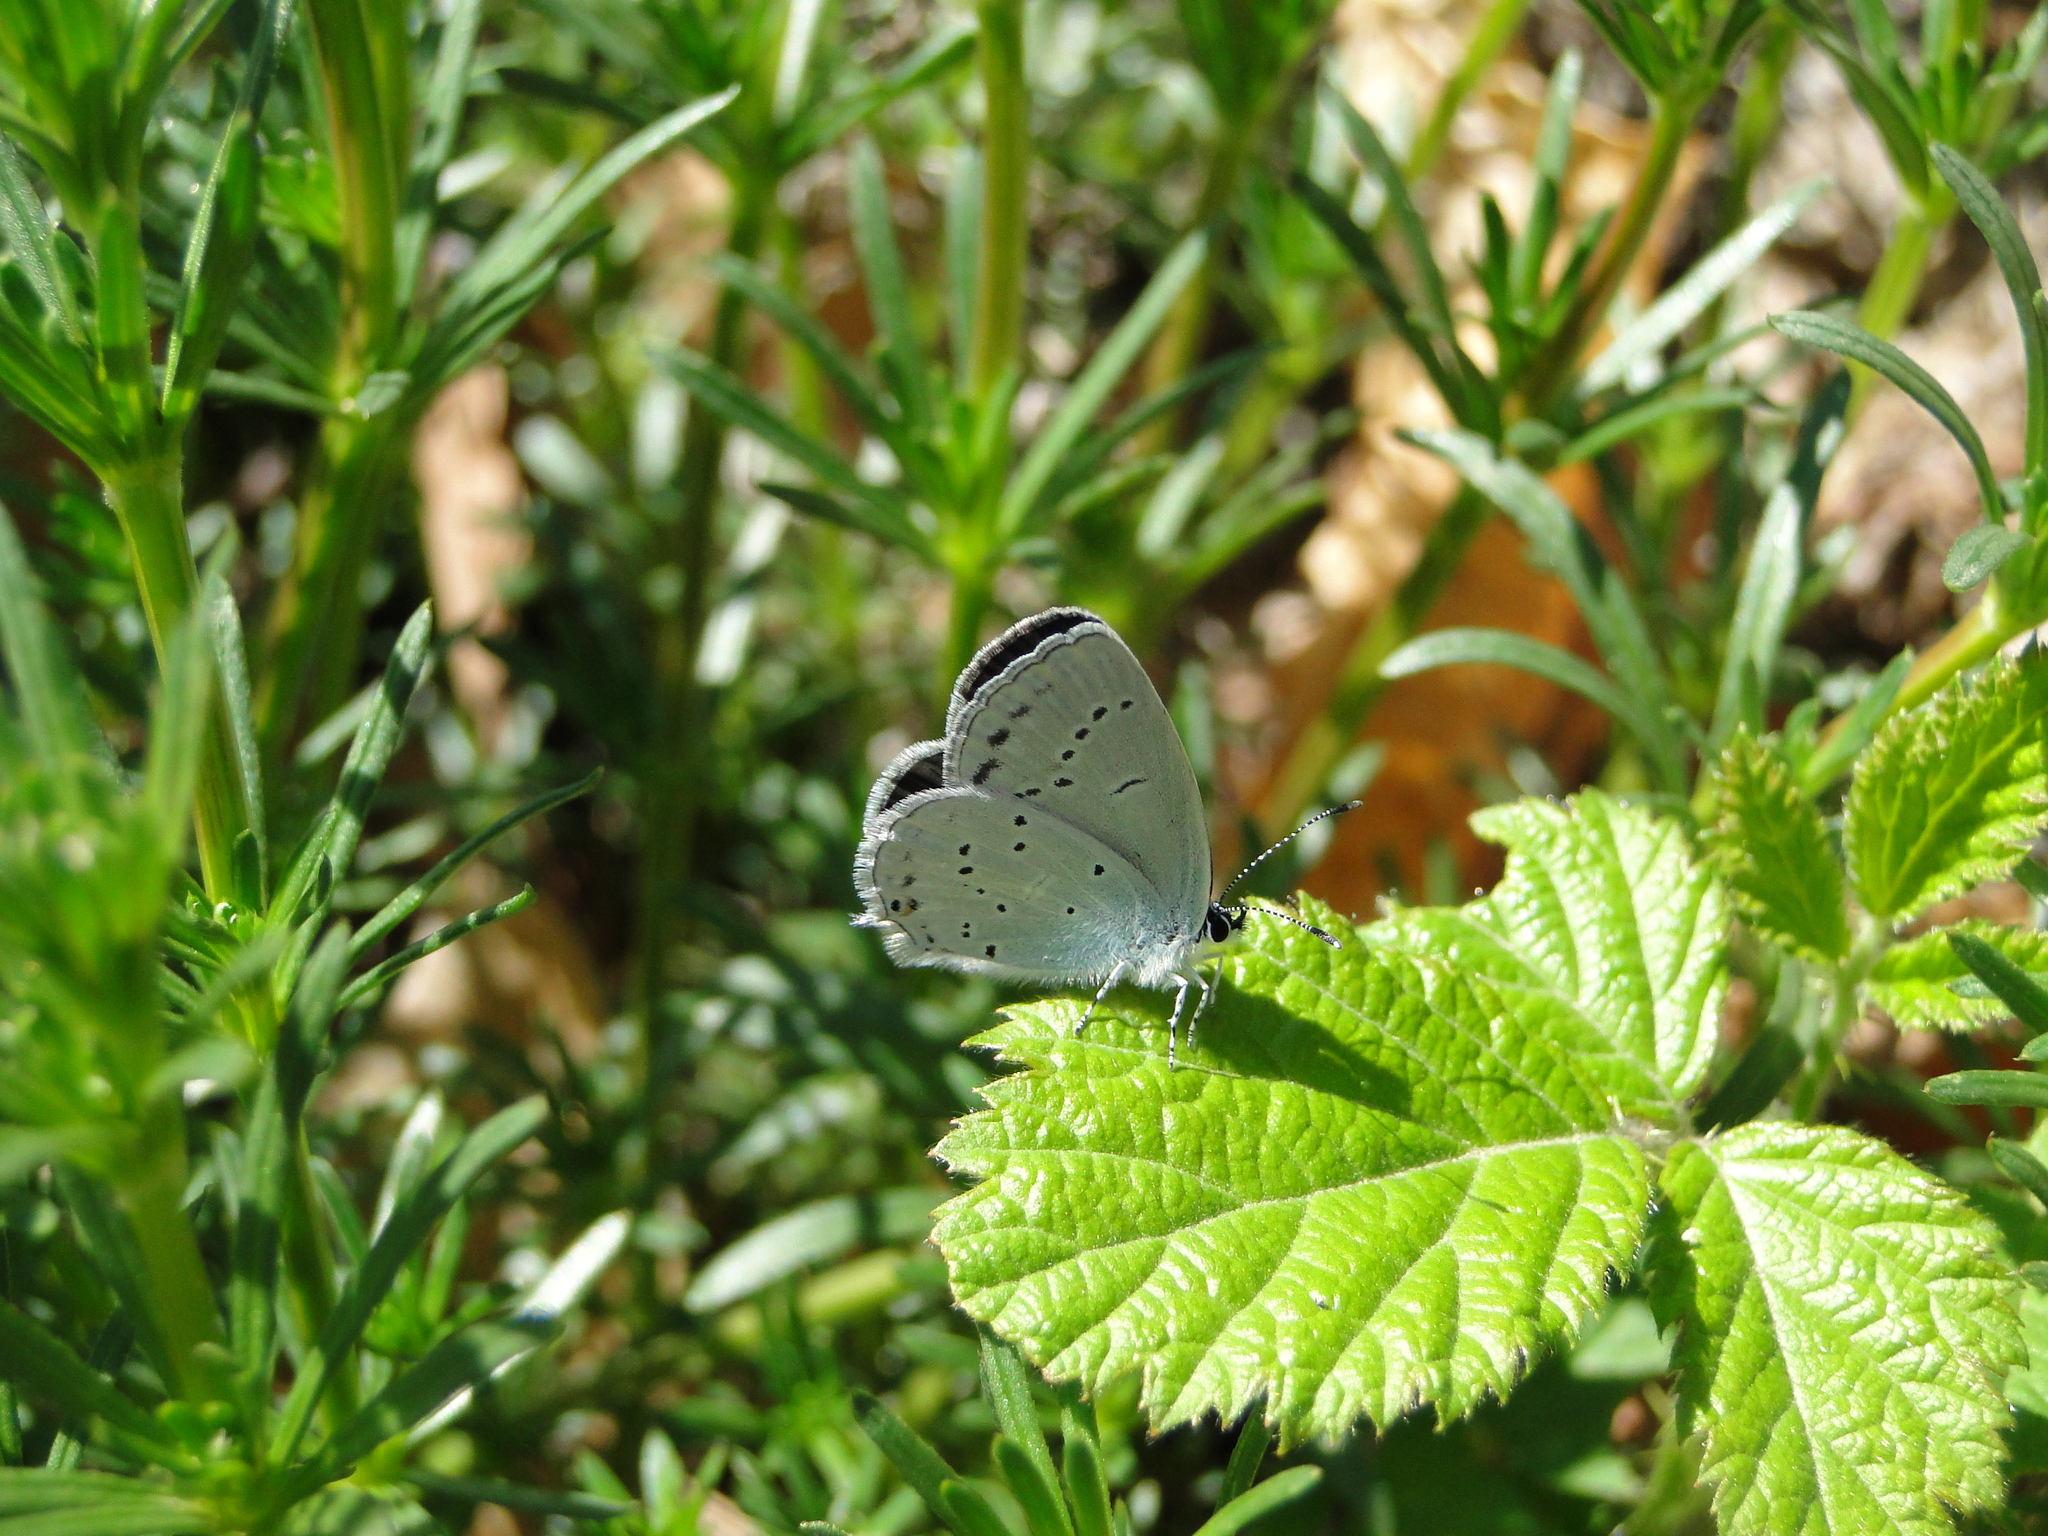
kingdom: Animalia
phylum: Arthropoda
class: Insecta
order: Lepidoptera
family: Lycaenidae
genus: Elkalyce
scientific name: Elkalyce alcetas
